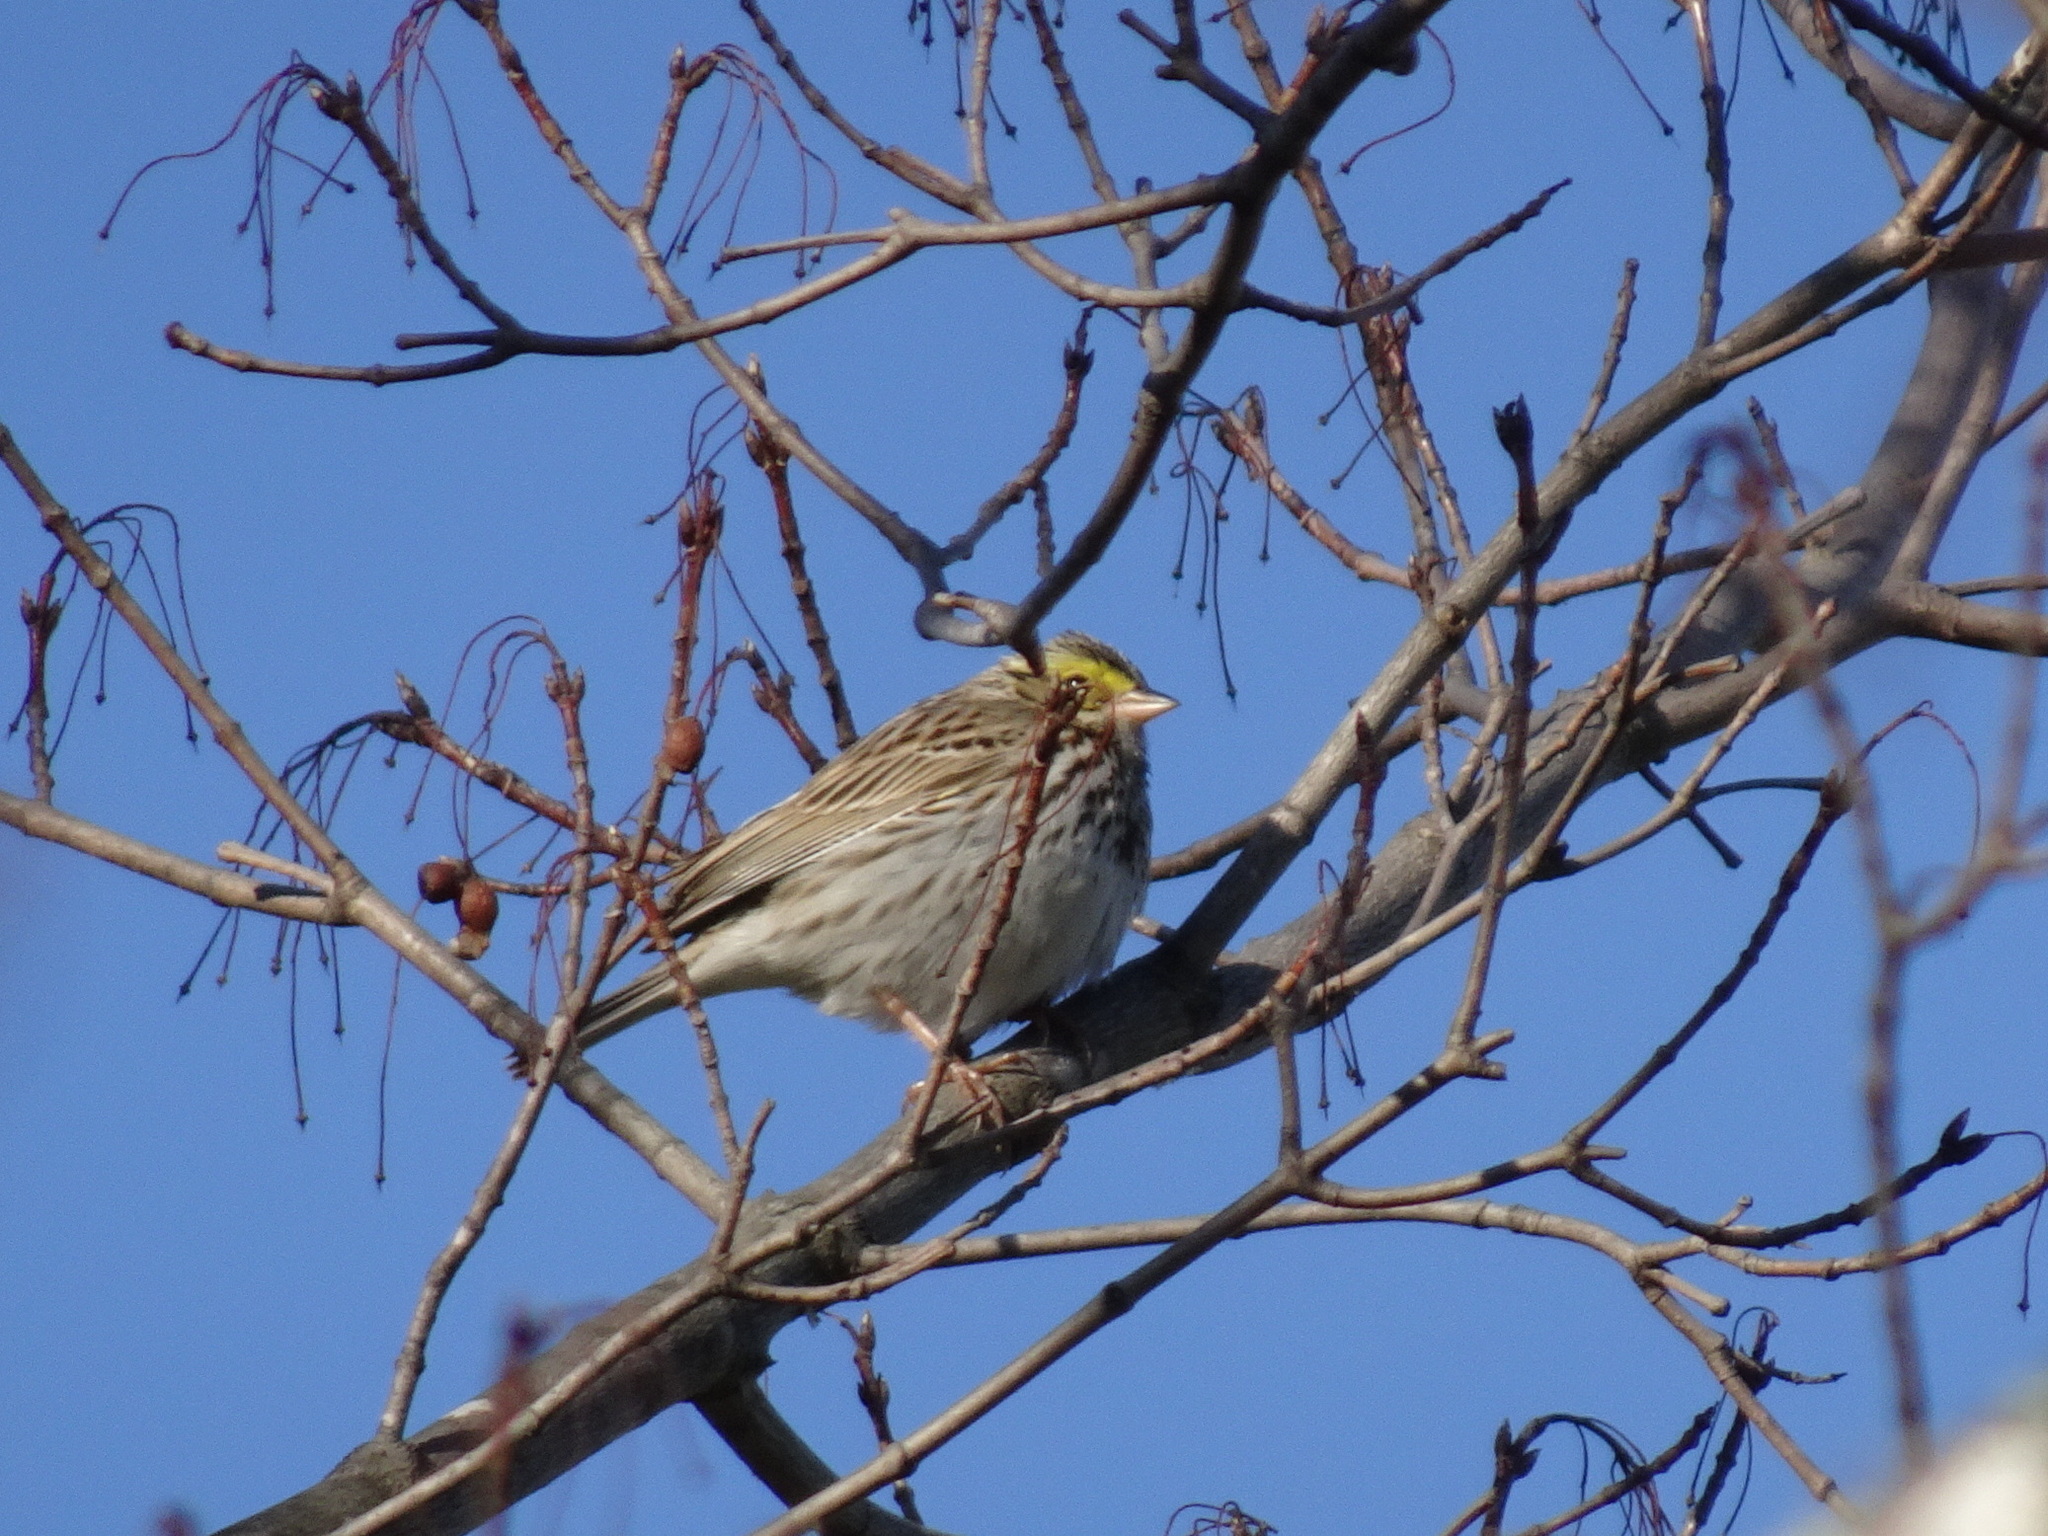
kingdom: Animalia
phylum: Chordata
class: Aves
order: Passeriformes
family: Passerellidae
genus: Passerculus
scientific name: Passerculus sandwichensis
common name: Savannah sparrow
